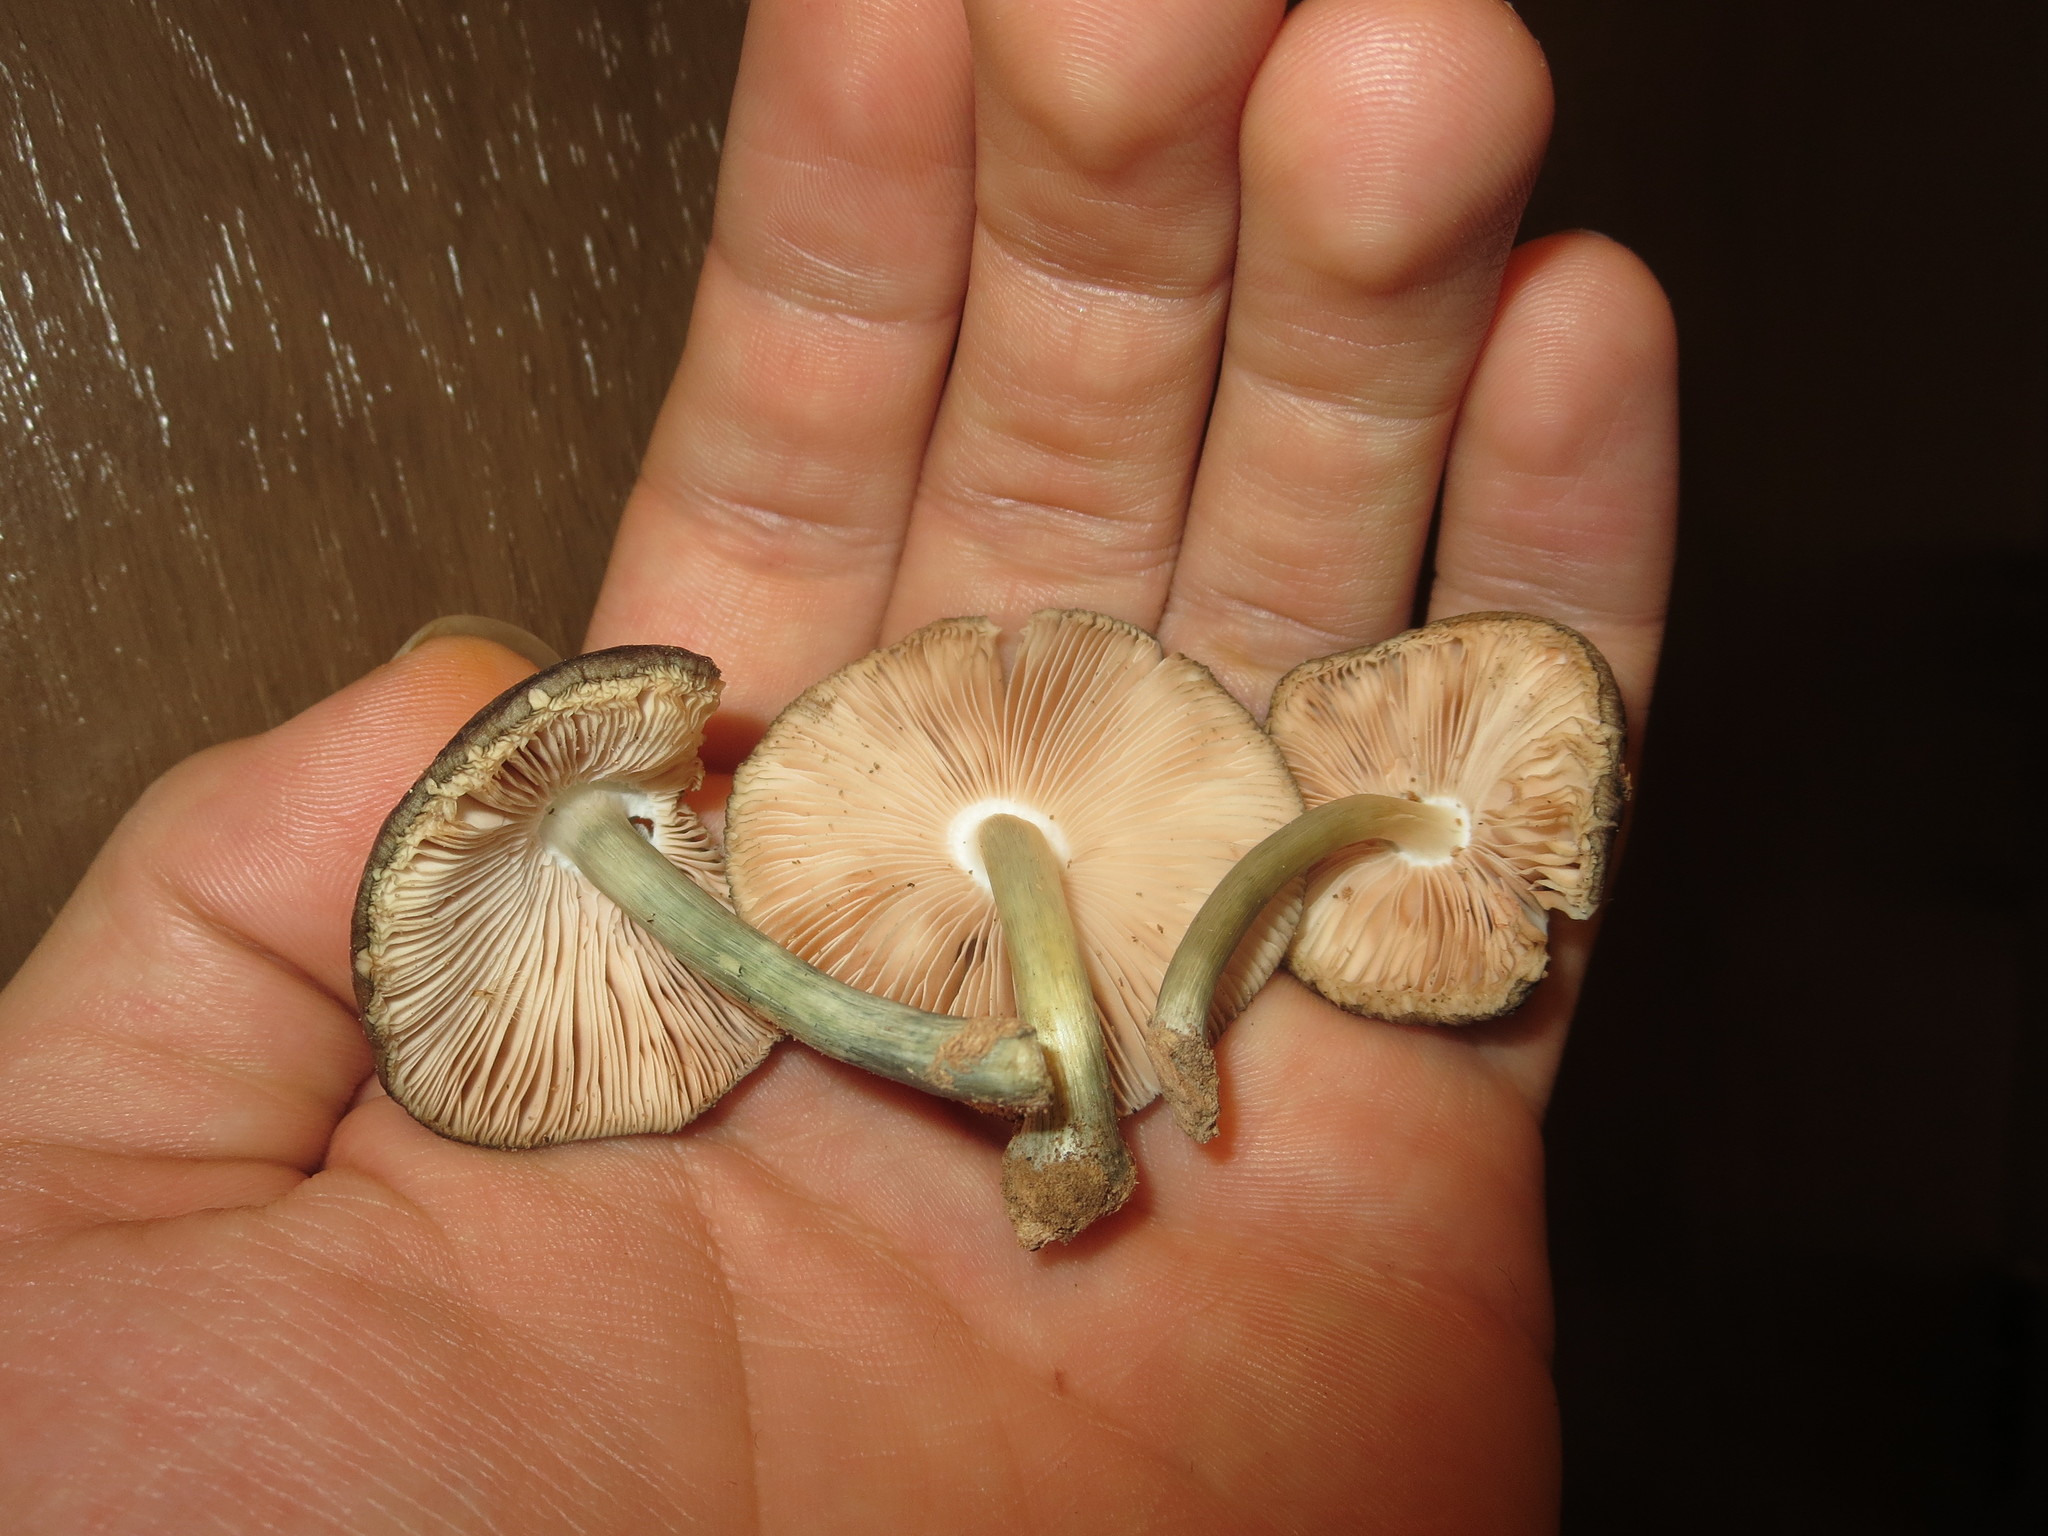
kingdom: Fungi
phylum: Basidiomycota
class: Agaricomycetes
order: Agaricales
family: Pluteaceae
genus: Pluteus
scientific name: Pluteus americanus
